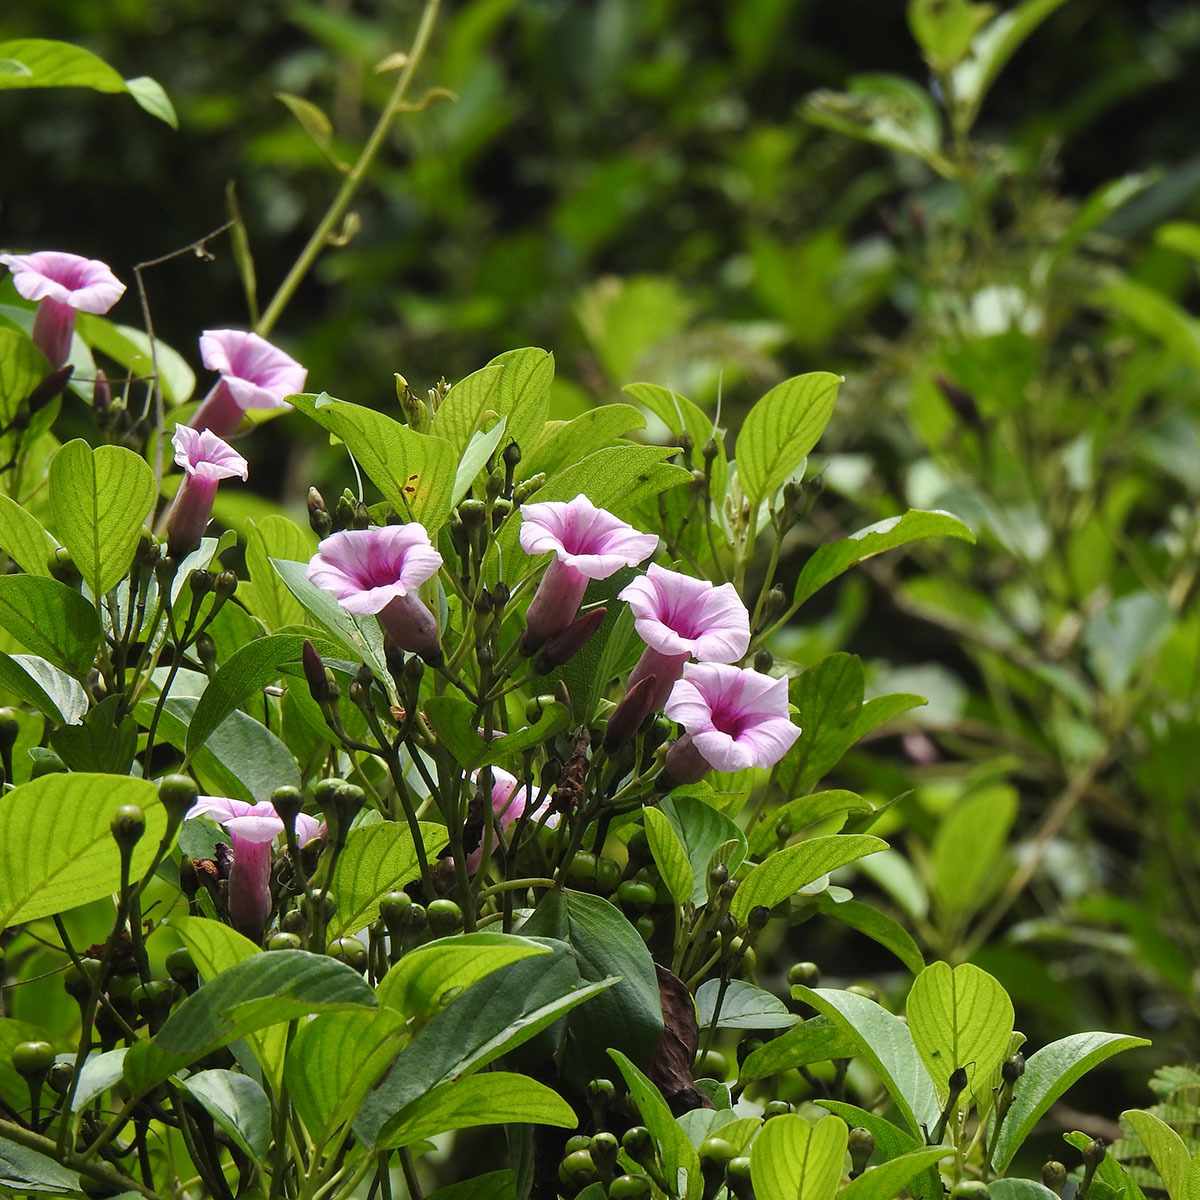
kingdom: Plantae
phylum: Tracheophyta
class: Magnoliopsida
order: Solanales
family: Convolvulaceae
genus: Argyreia
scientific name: Argyreia elliptica
